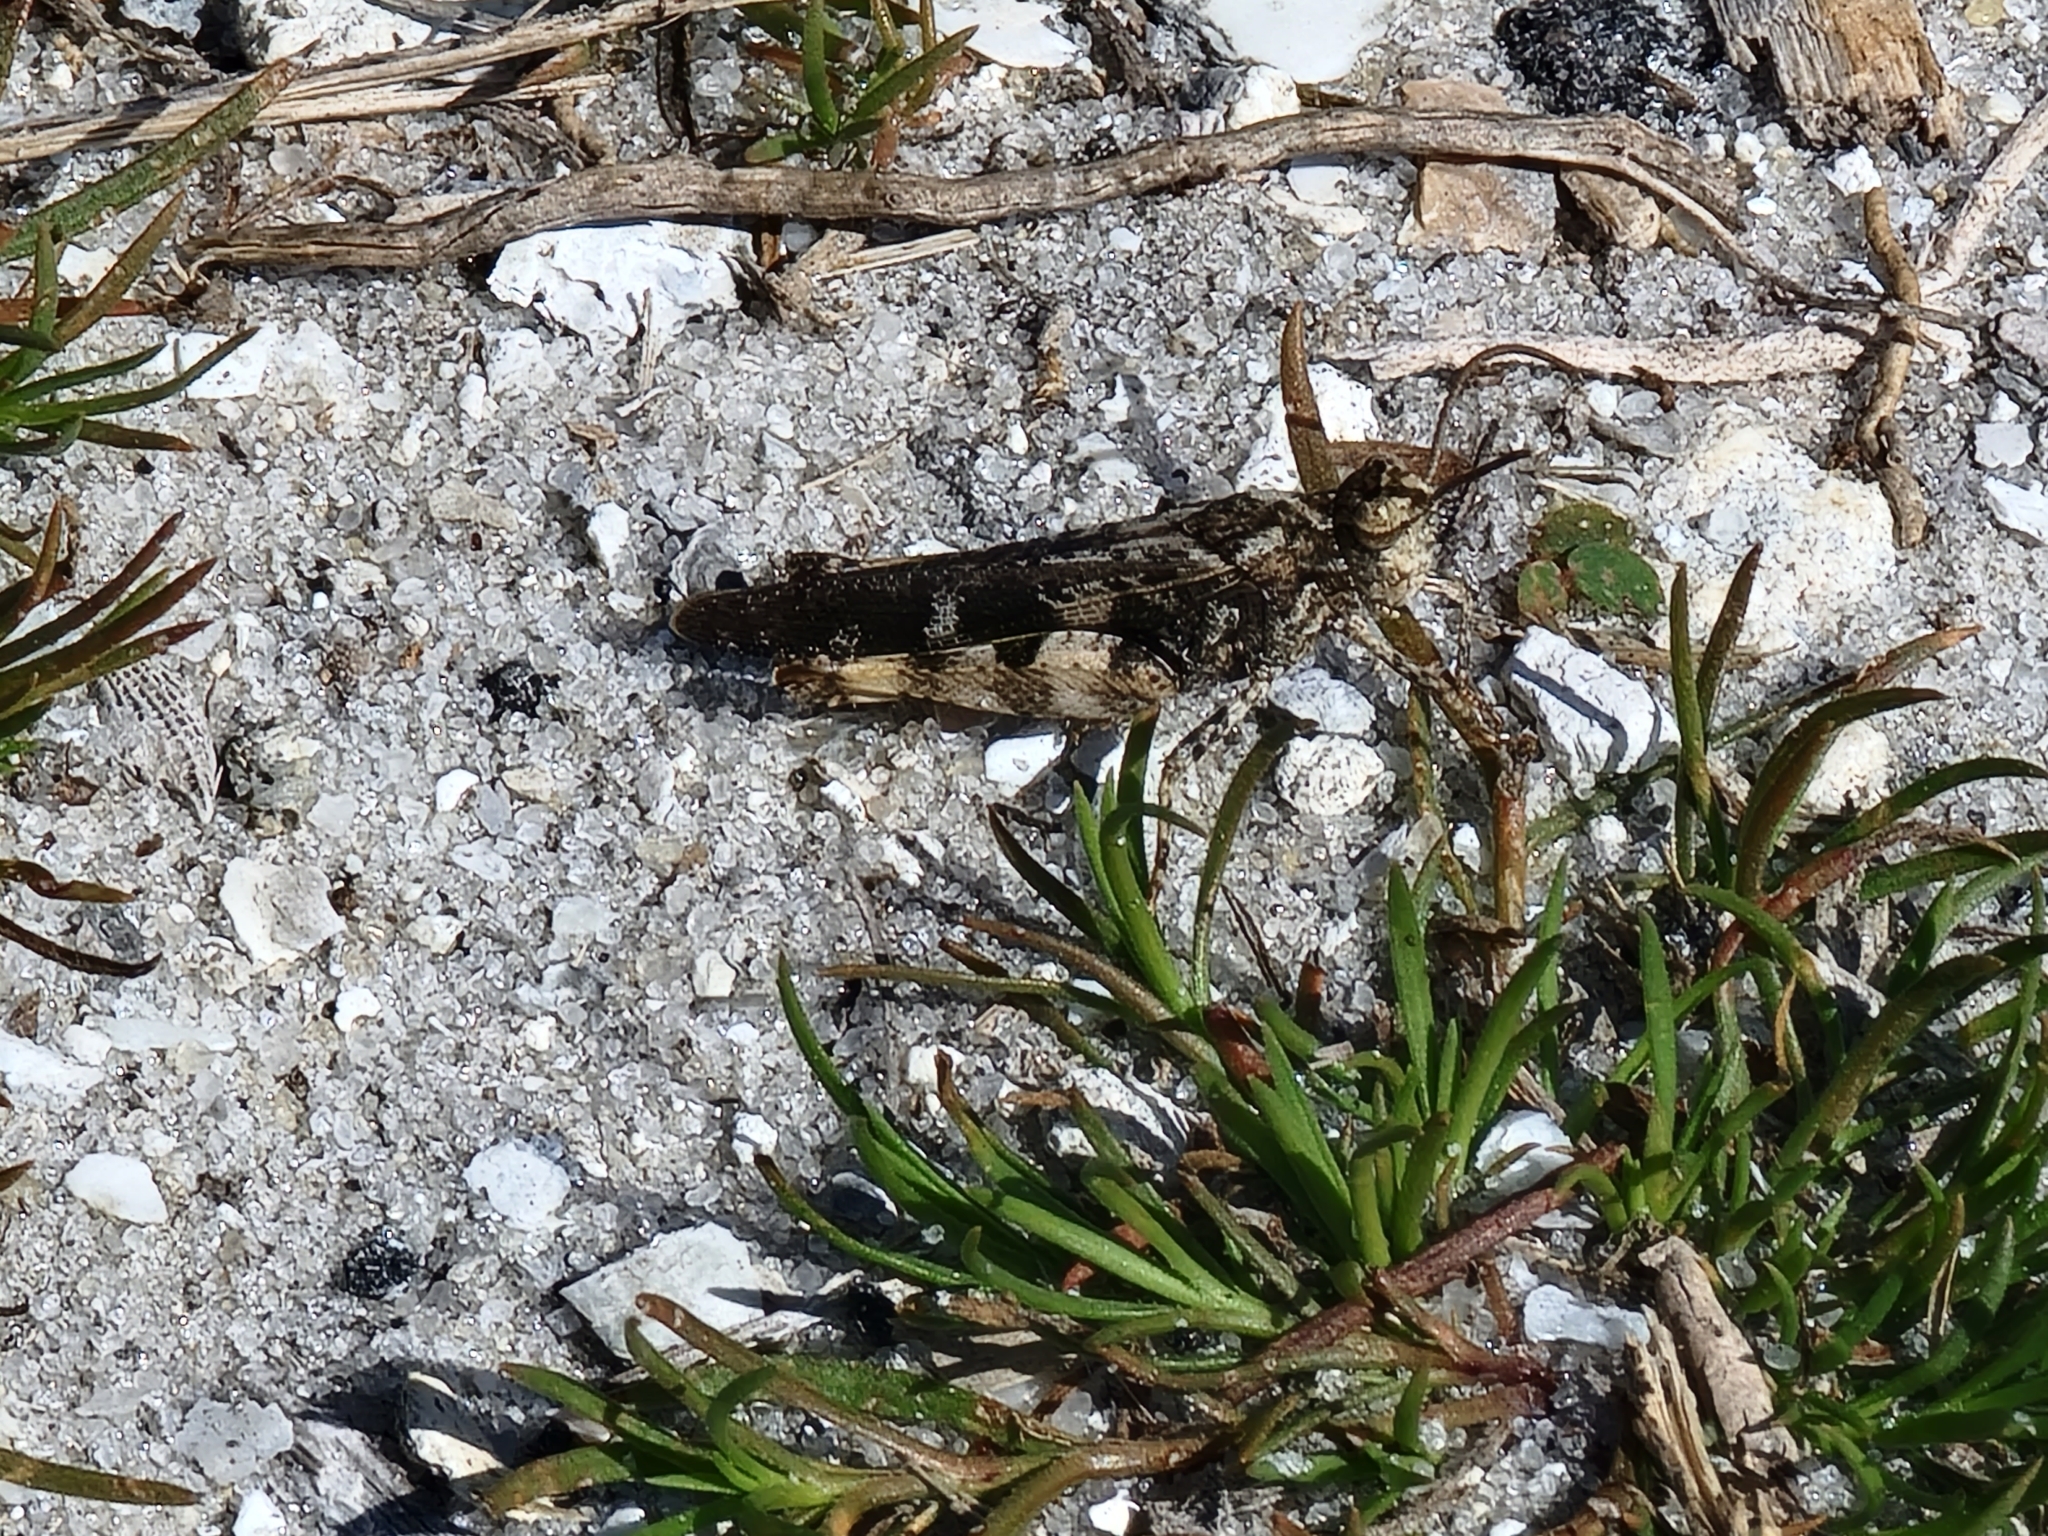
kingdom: Animalia
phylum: Arthropoda
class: Insecta
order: Orthoptera
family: Acrididae
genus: Chortophaga
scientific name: Chortophaga australior
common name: Southern green-striped grasshopper
